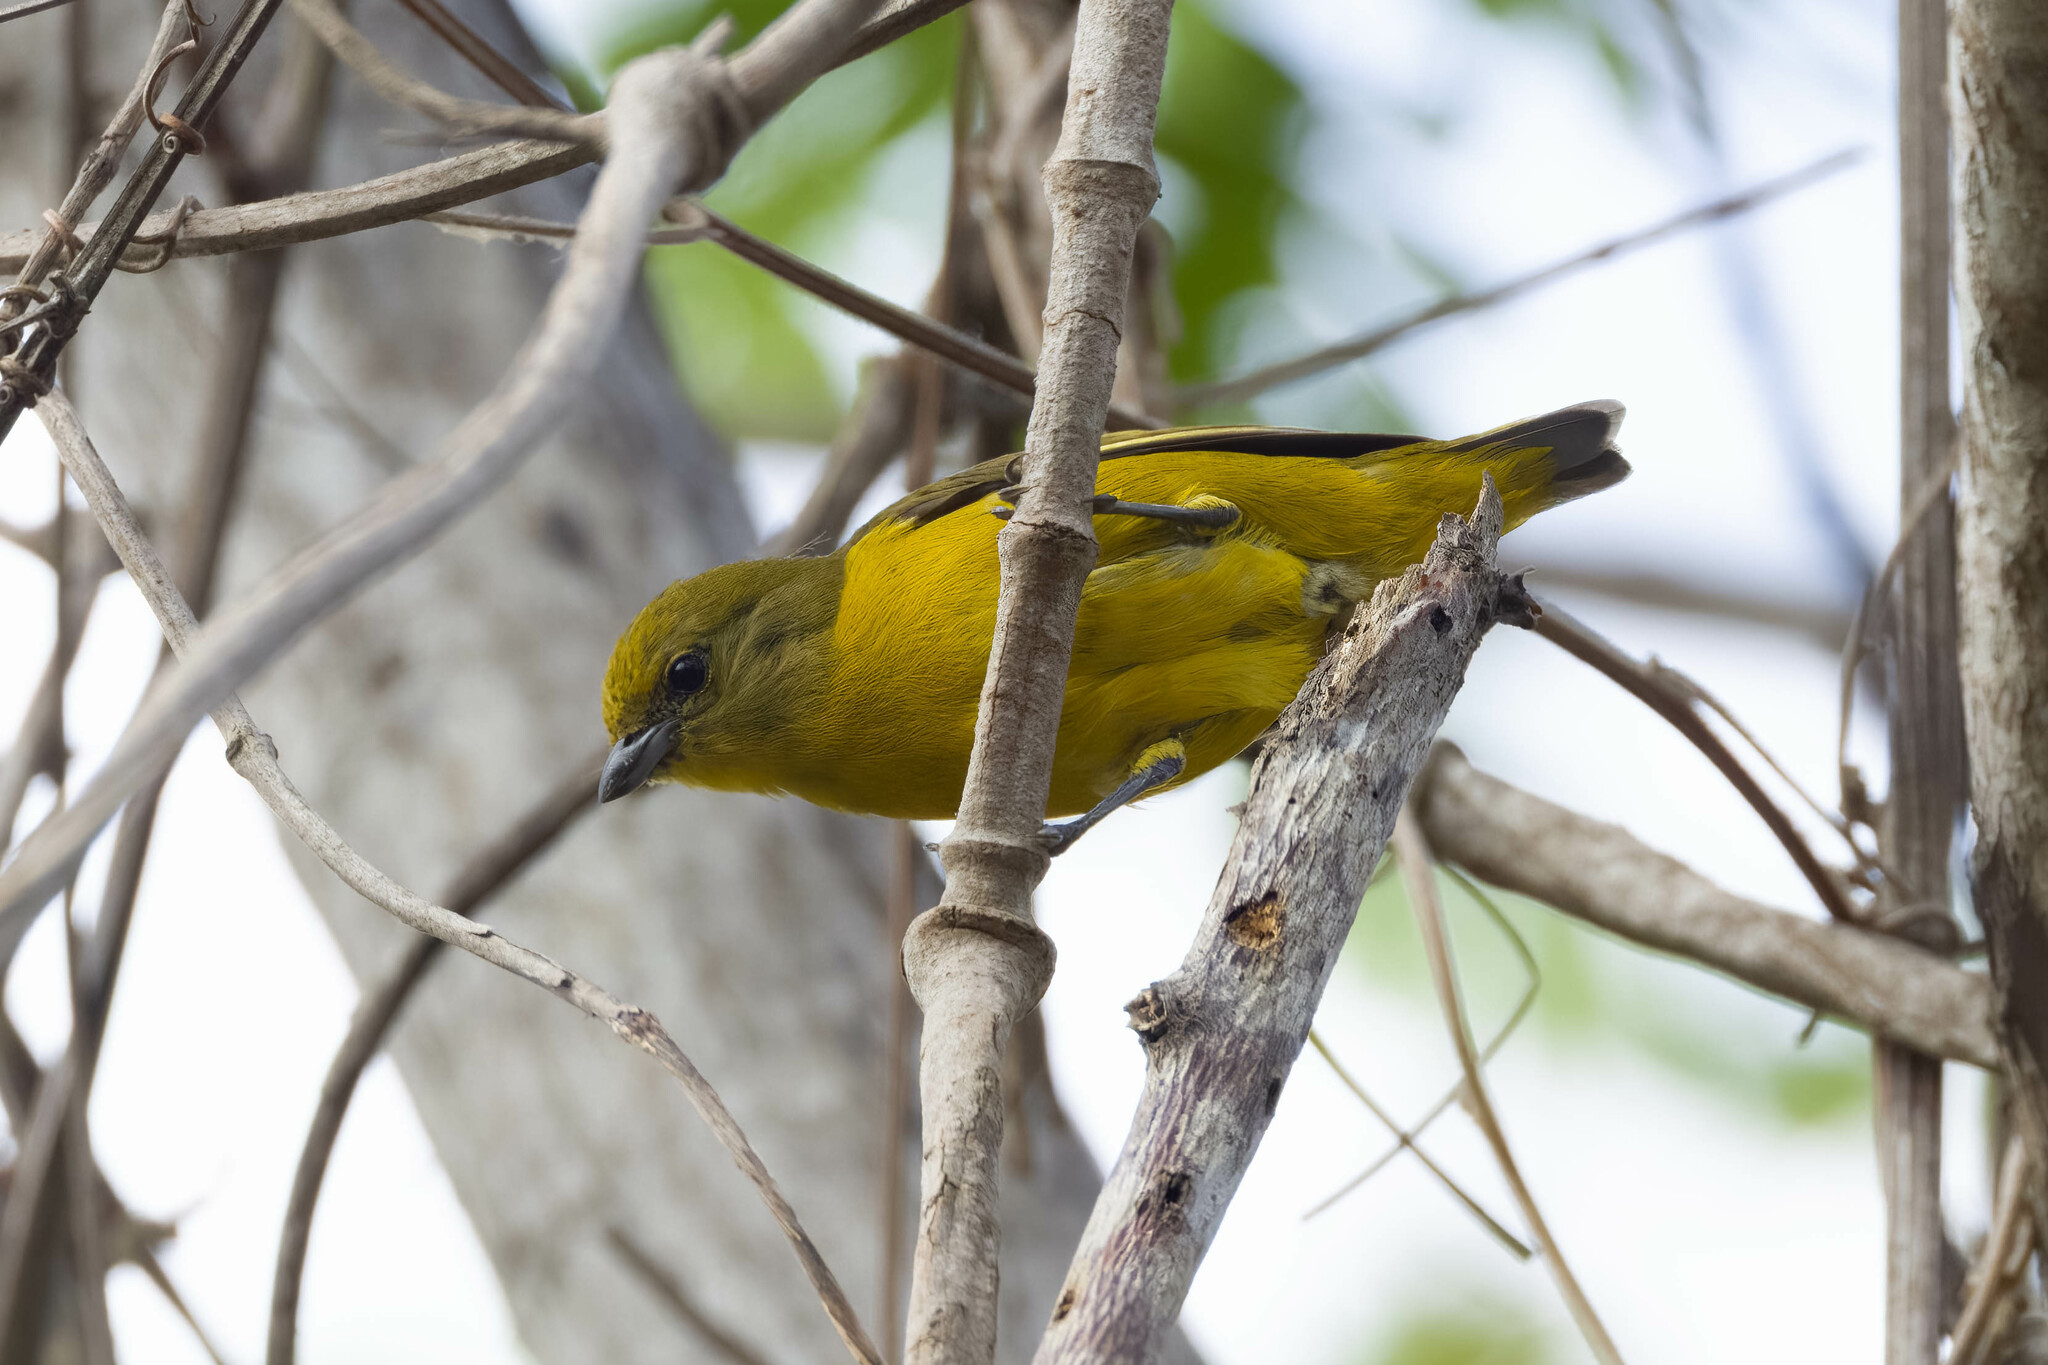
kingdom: Animalia
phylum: Chordata
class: Aves
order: Passeriformes
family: Fringillidae
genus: Euphonia
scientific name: Euphonia laniirostris
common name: Thick-billed euphonia
